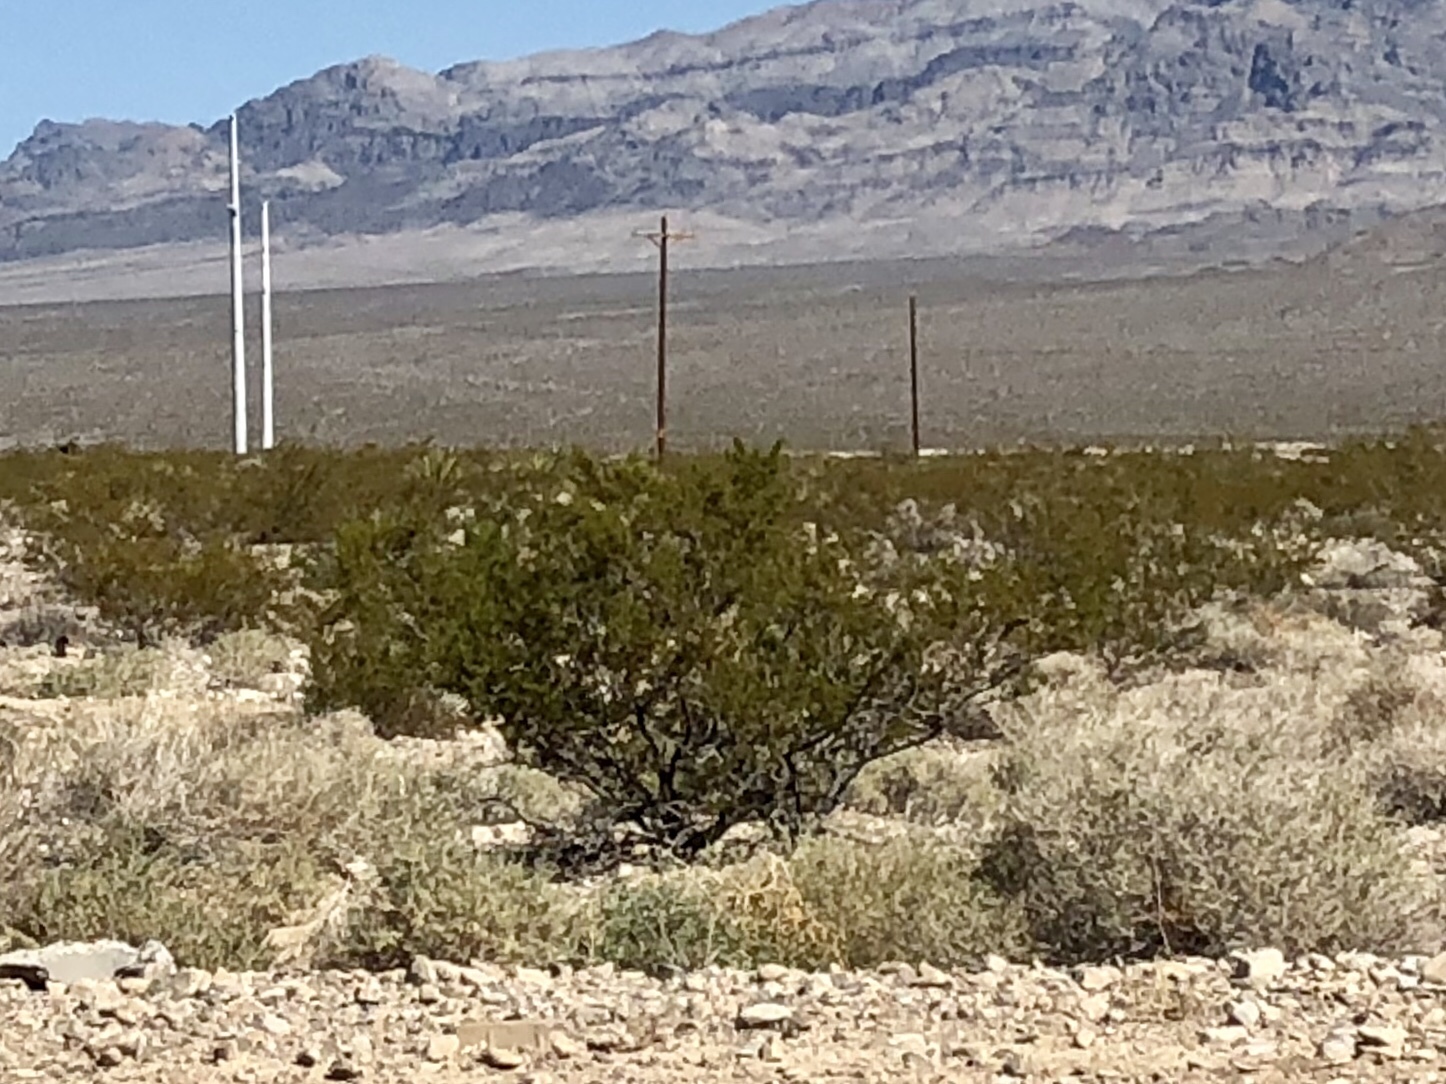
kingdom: Plantae
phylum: Tracheophyta
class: Magnoliopsida
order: Zygophyllales
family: Zygophyllaceae
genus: Larrea
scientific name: Larrea tridentata
